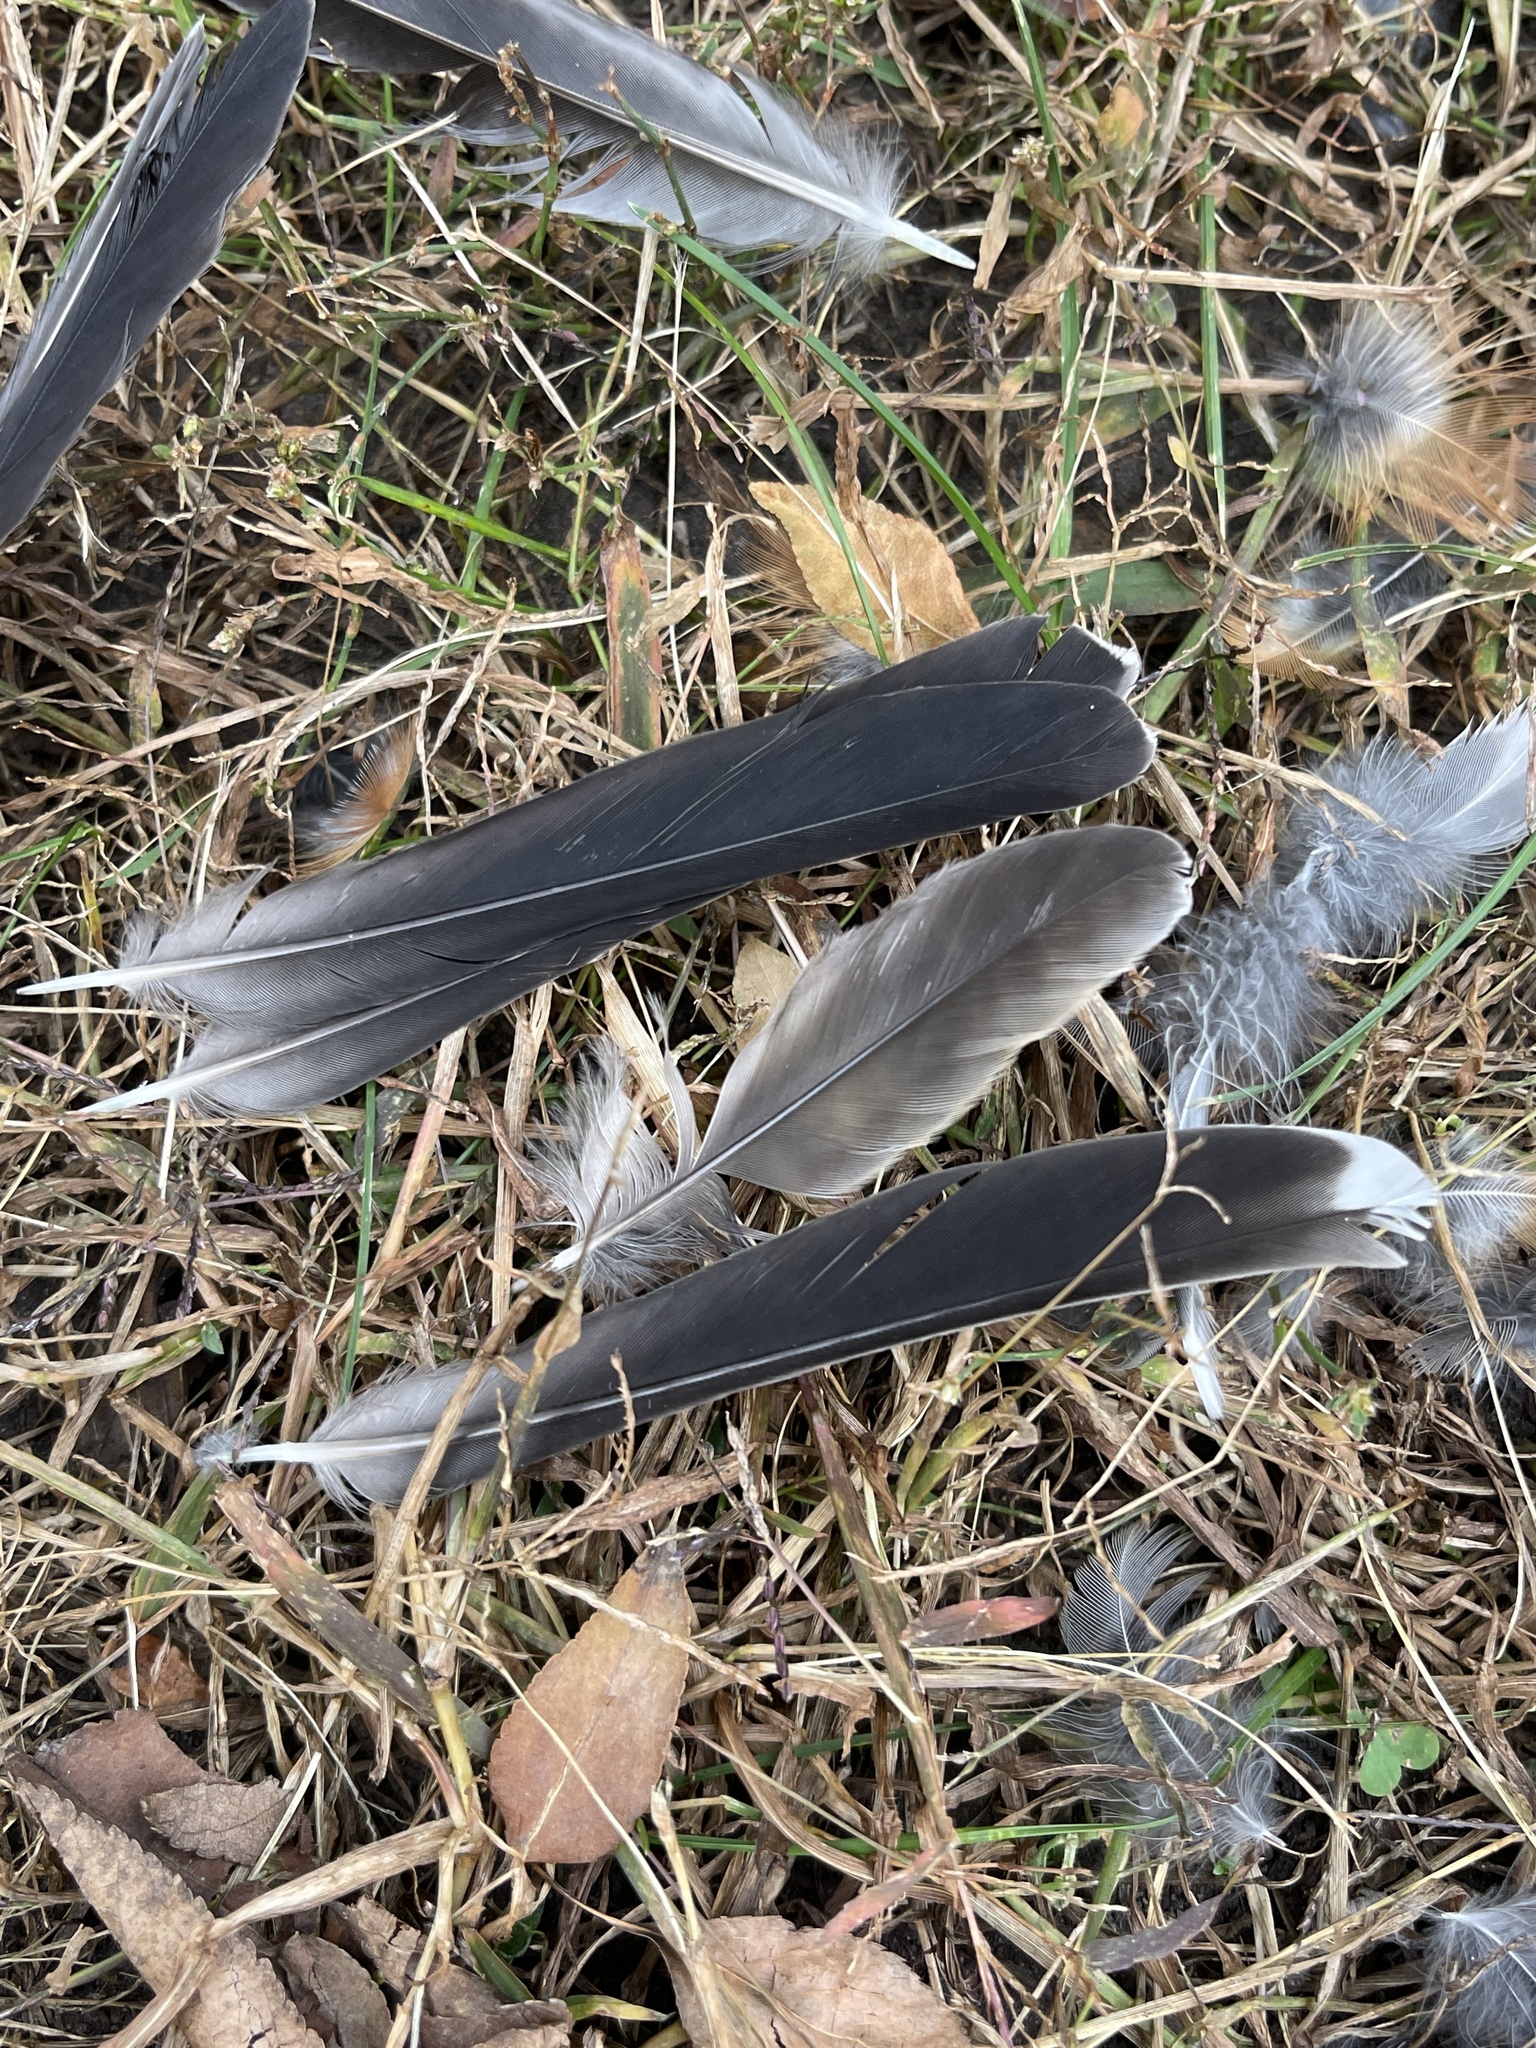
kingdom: Animalia
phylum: Chordata
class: Aves
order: Passeriformes
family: Turdidae
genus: Turdus
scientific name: Turdus migratorius
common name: American robin
